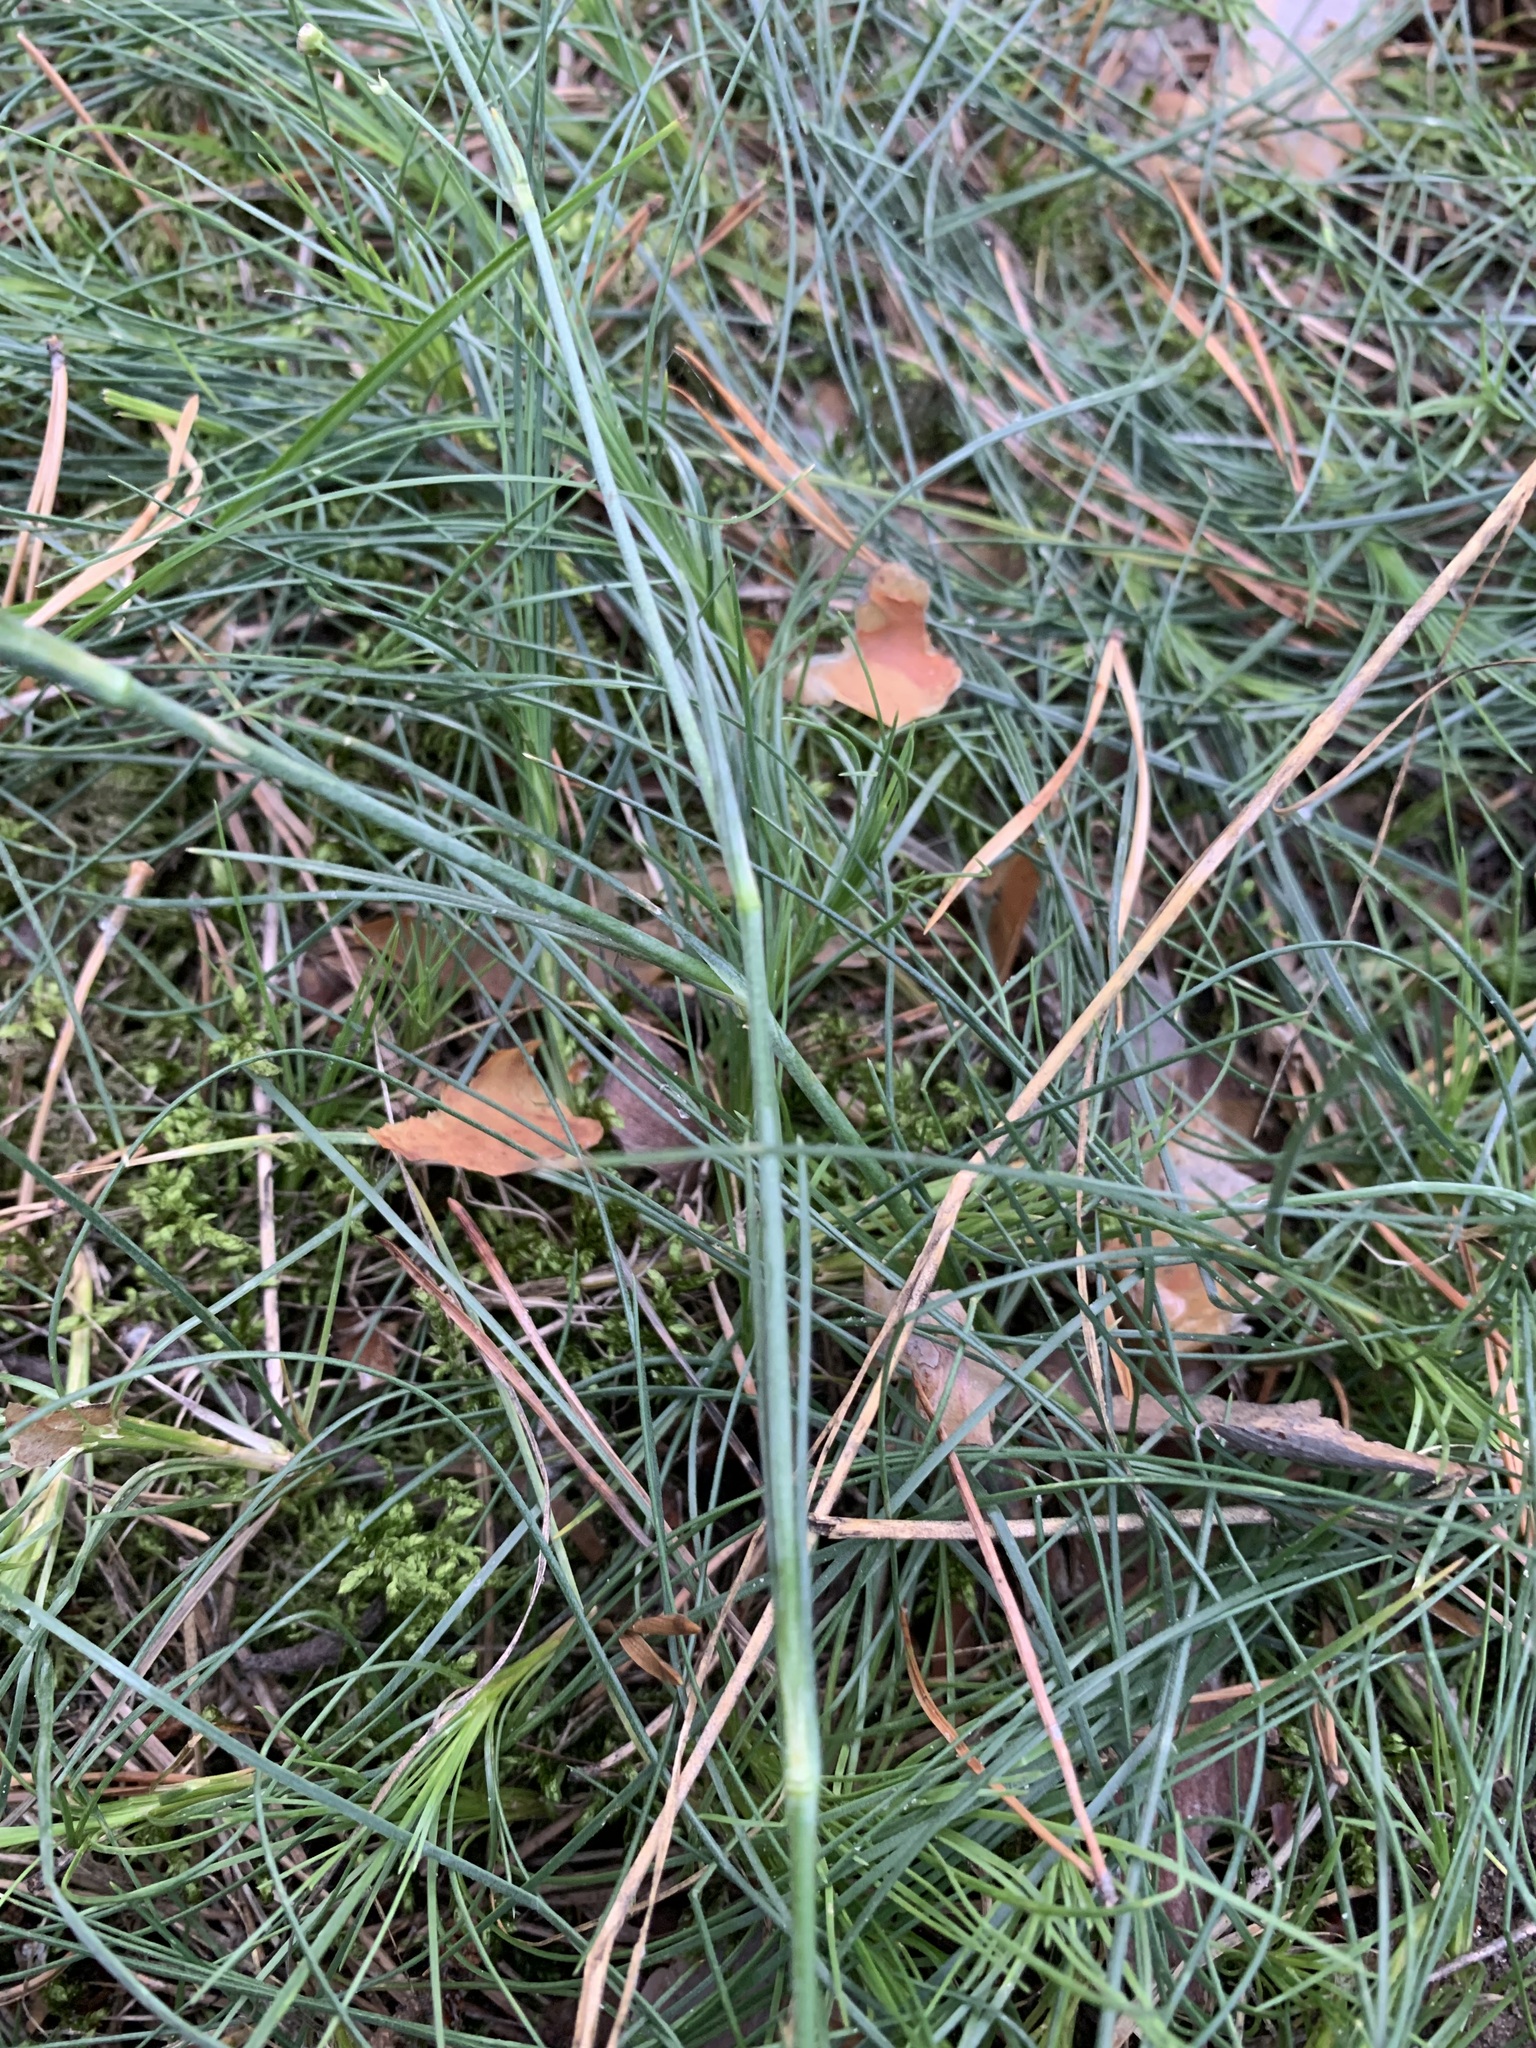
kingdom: Plantae
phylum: Tracheophyta
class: Magnoliopsida
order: Caryophyllales
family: Caryophyllaceae
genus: Eremogone
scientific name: Eremogone saxatilis
